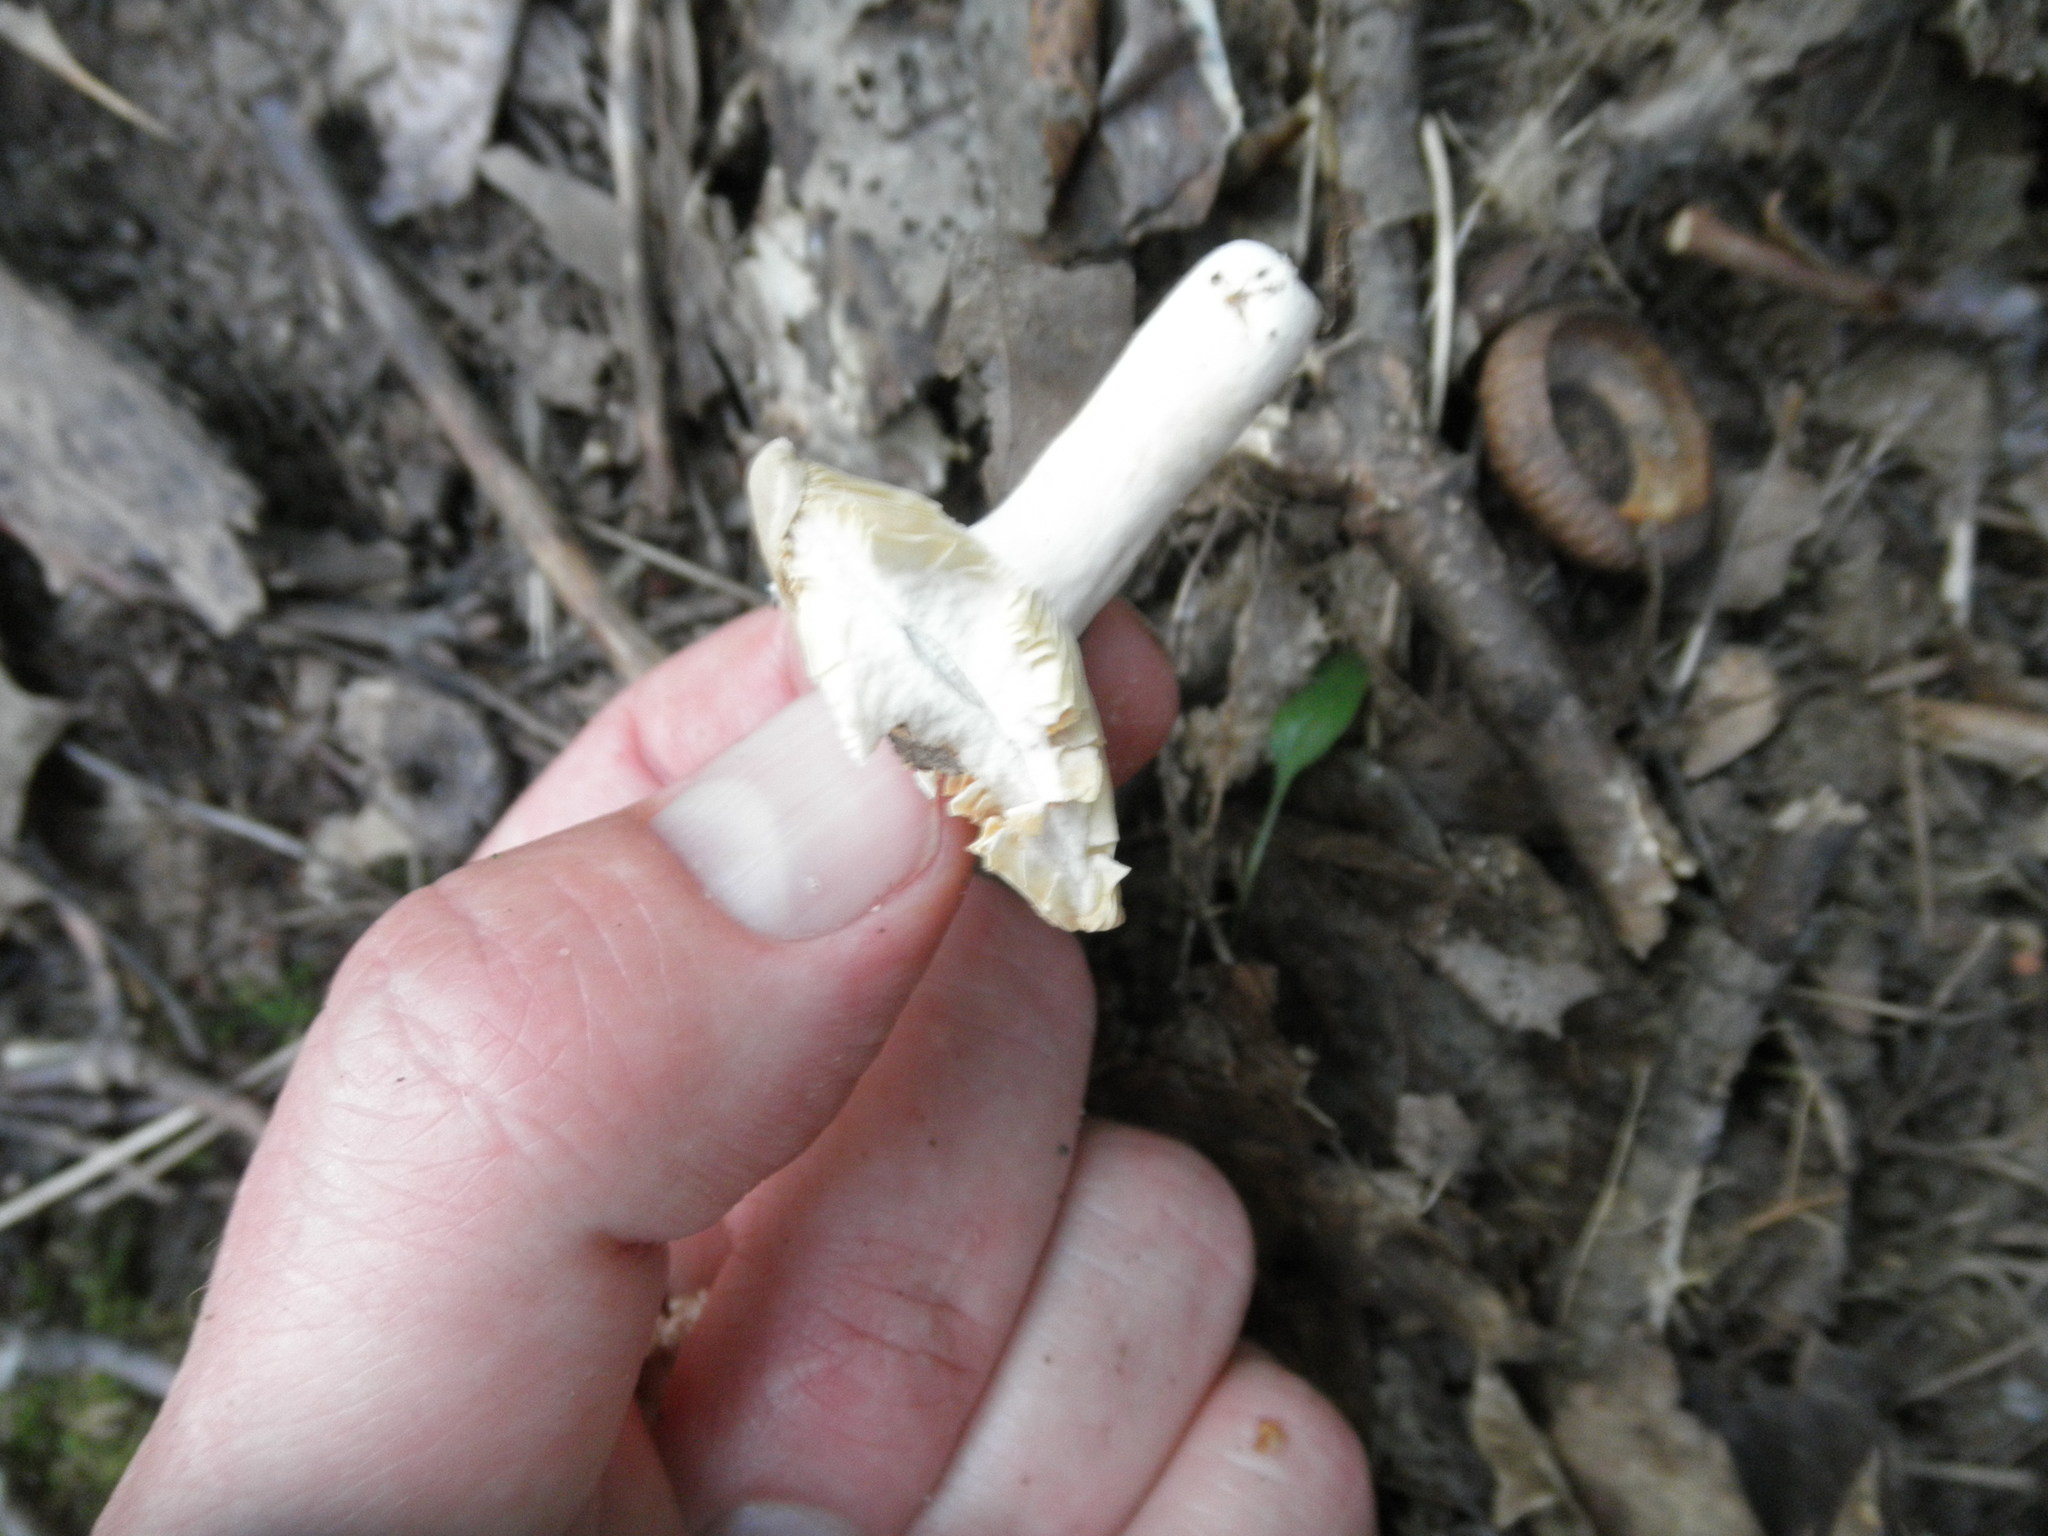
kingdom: Fungi
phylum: Basidiomycota
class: Agaricomycetes
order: Russulales
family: Russulaceae
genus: Russula
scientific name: Russula
